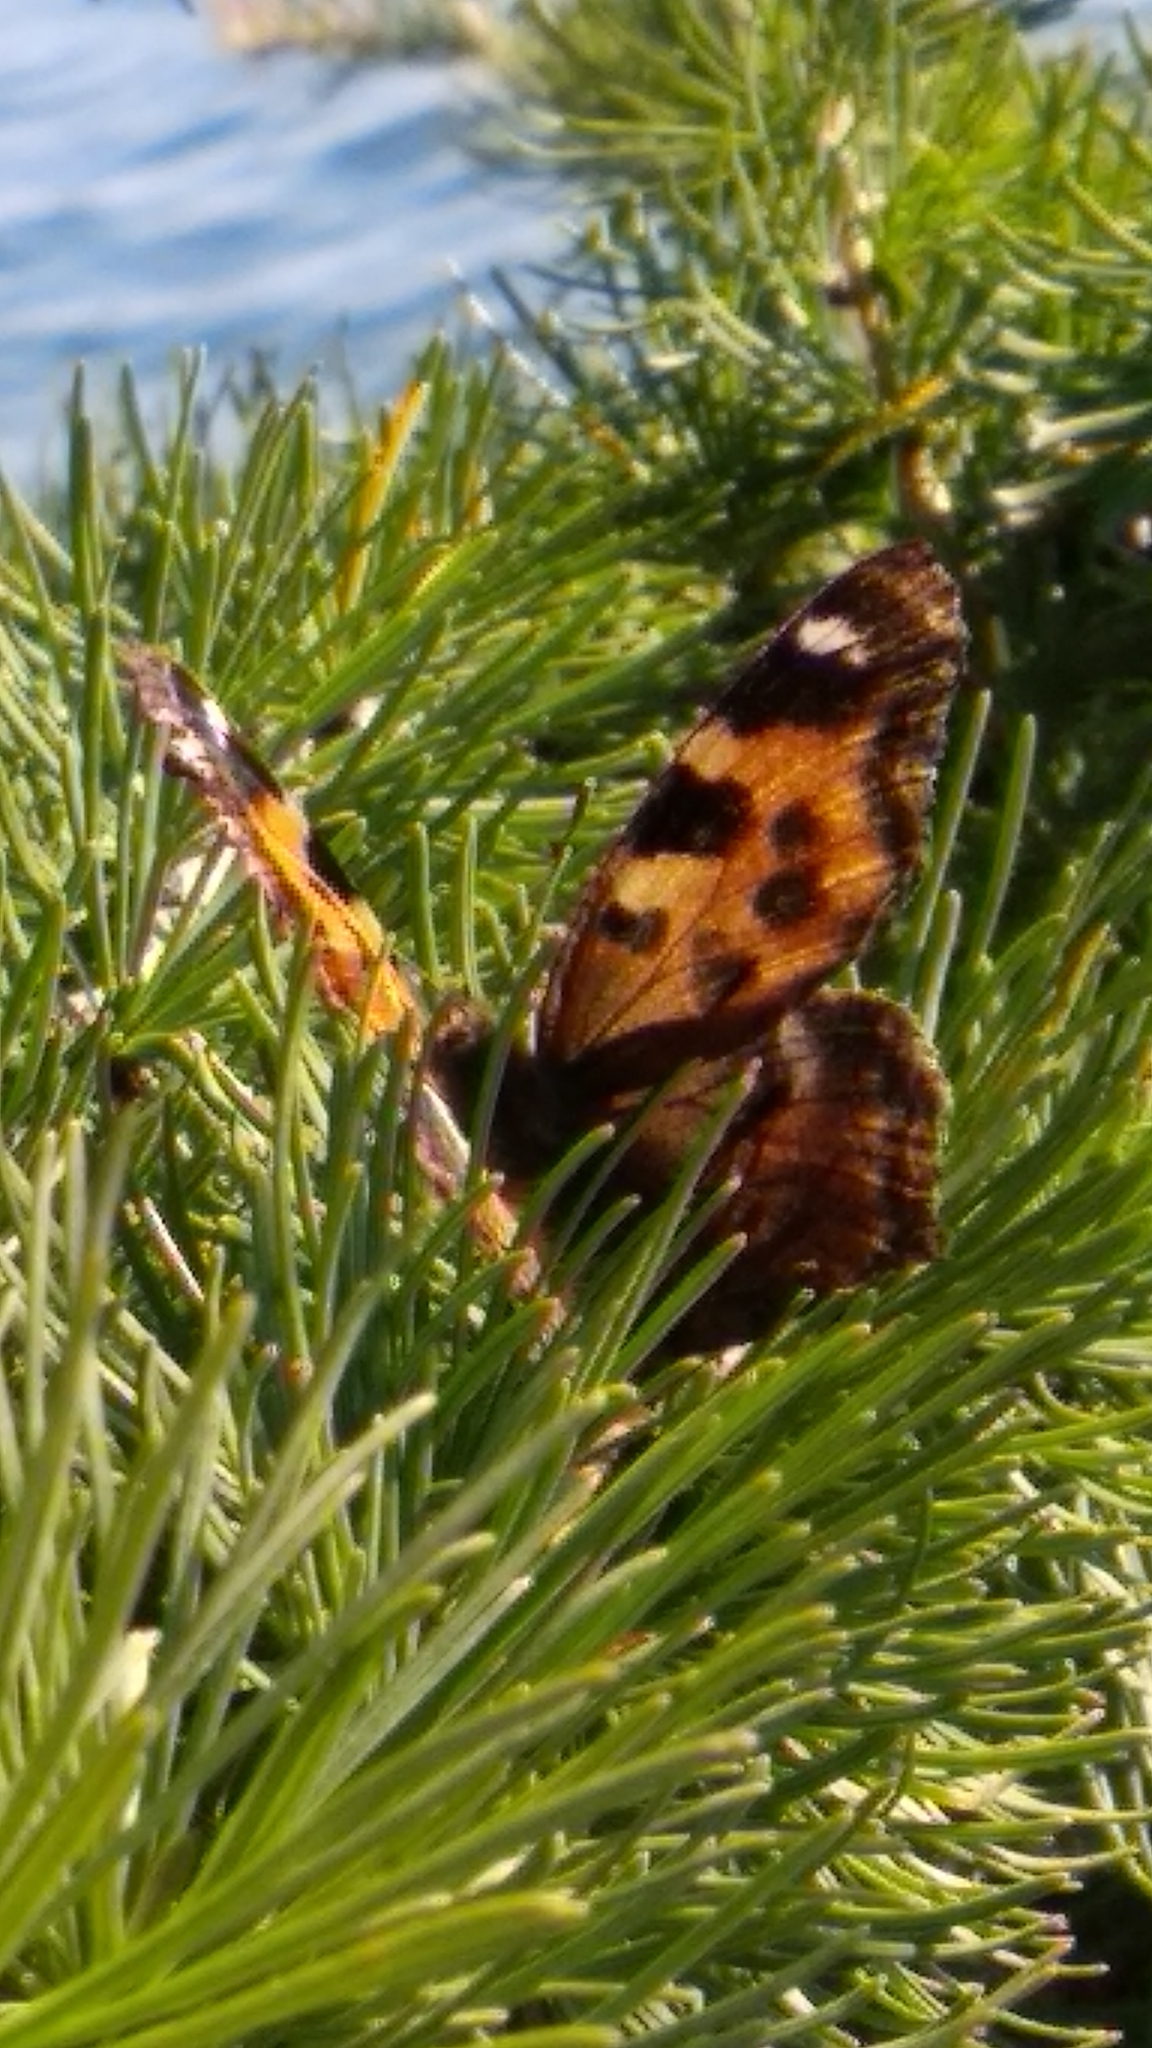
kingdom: Animalia
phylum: Arthropoda
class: Insecta
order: Lepidoptera
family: Nymphalidae
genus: Polygonia
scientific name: Polygonia vaualbum
